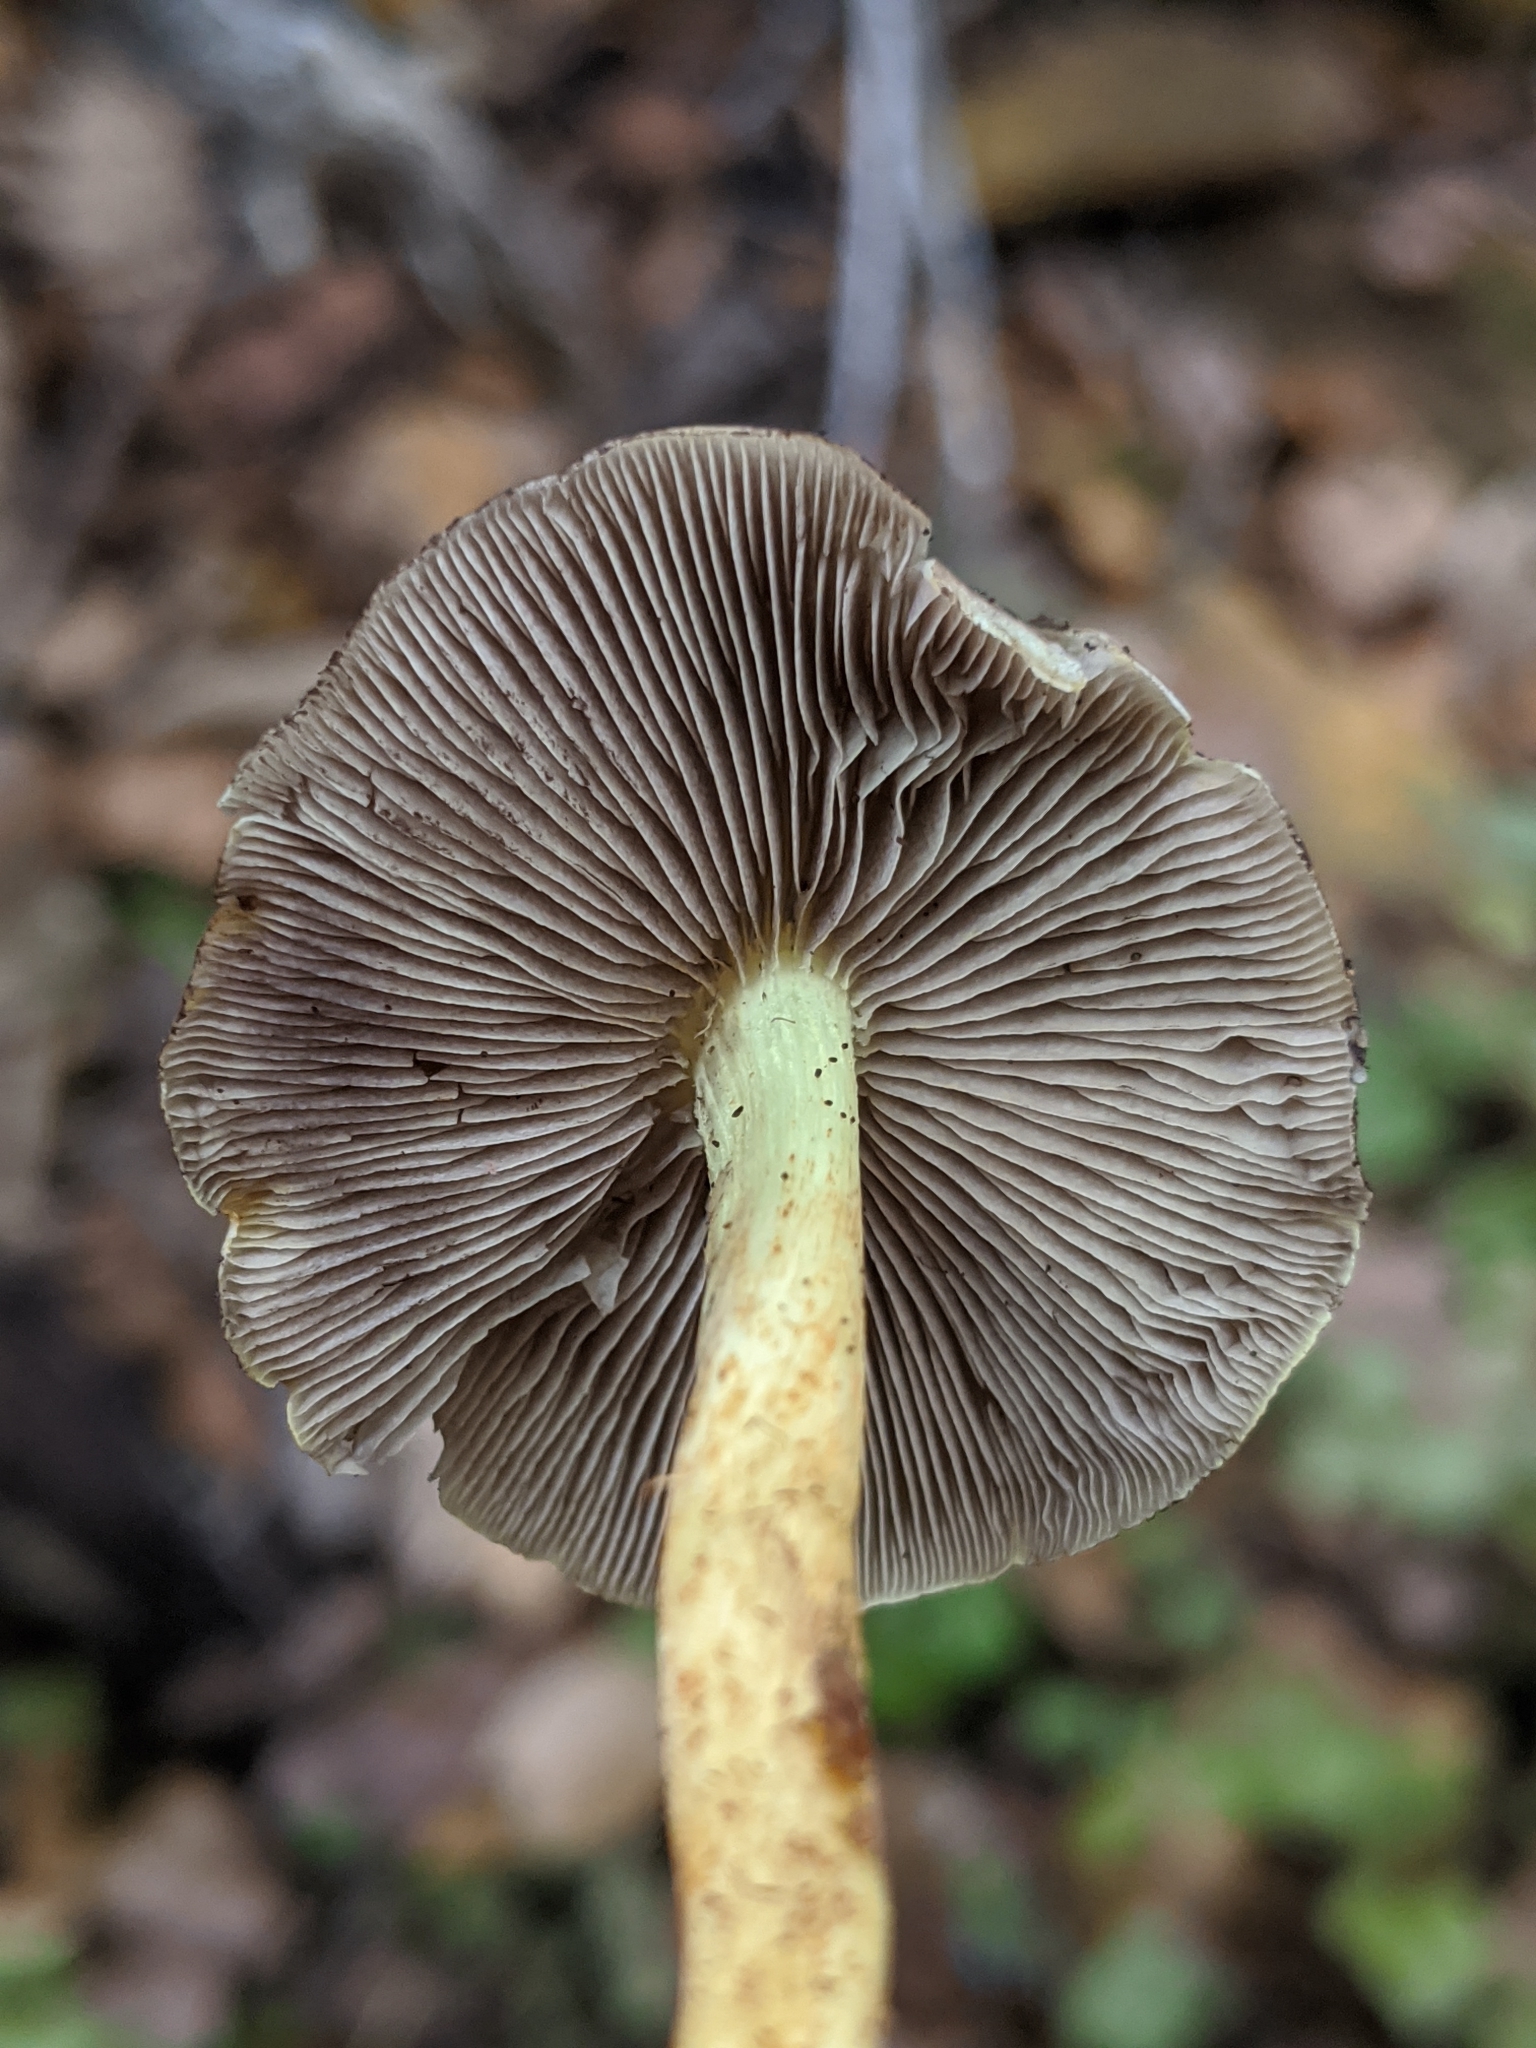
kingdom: Fungi
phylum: Basidiomycota
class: Agaricomycetes
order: Agaricales
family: Strophariaceae
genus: Hypholoma
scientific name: Hypholoma fasciculare
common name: Sulphur tuft
